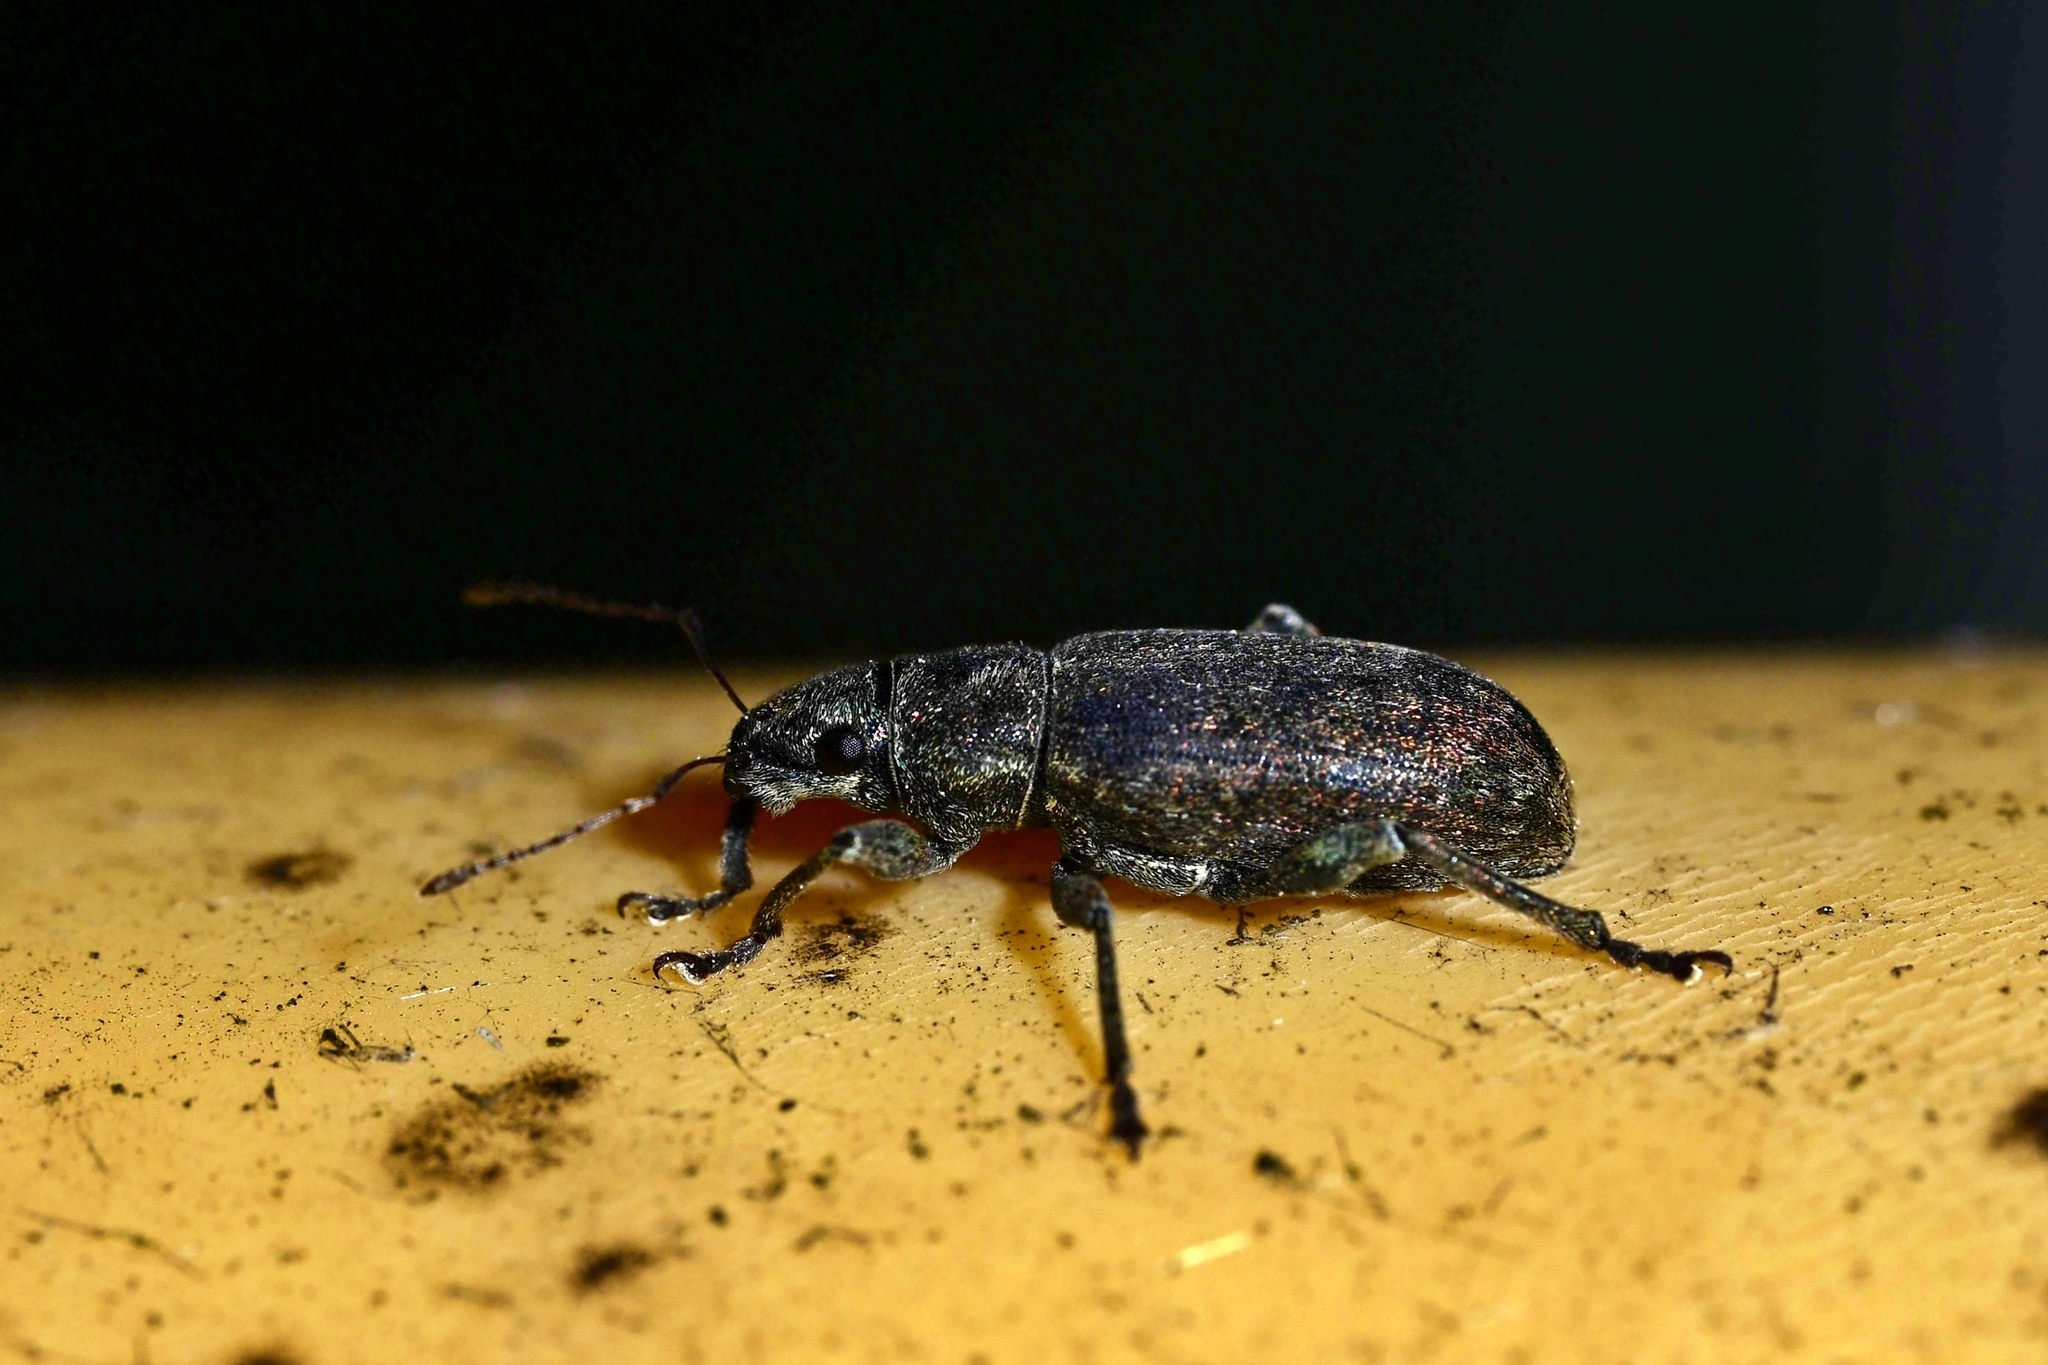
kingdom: Animalia
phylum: Arthropoda
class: Insecta
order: Coleoptera
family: Curculionidae
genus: Brachyderes
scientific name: Brachyderes incanus
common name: Weevil
